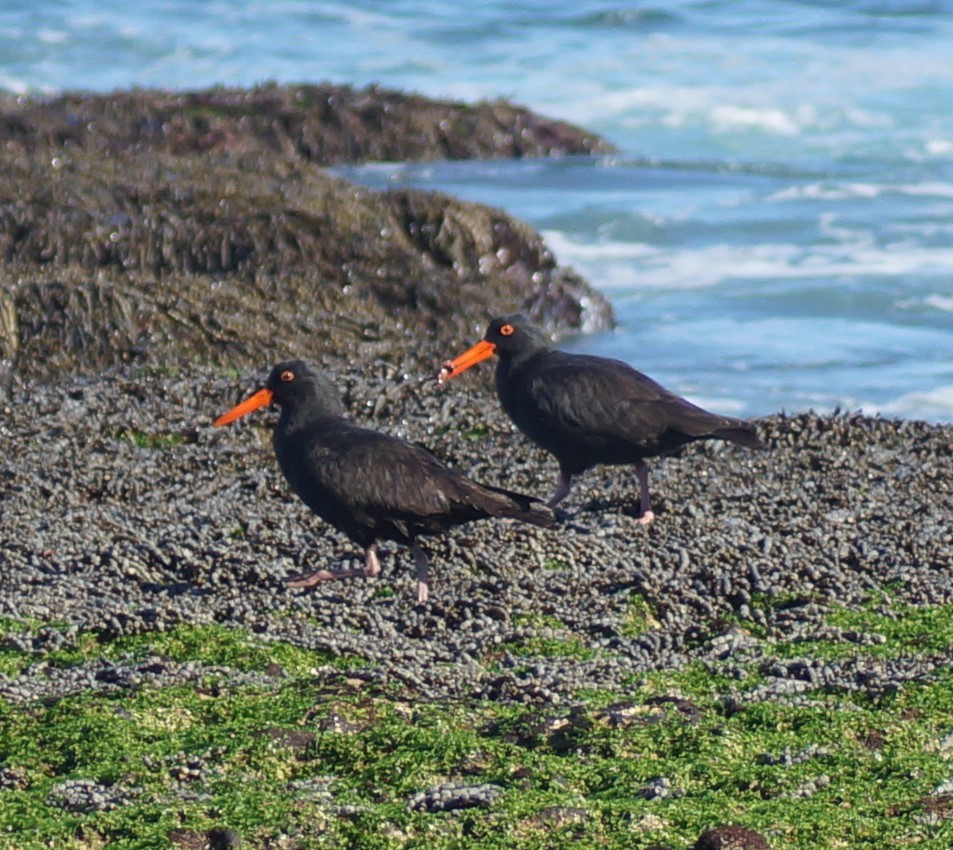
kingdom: Animalia
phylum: Chordata
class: Aves
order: Charadriiformes
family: Haematopodidae
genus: Haematopus
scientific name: Haematopus fuliginosus
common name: Sooty oystercatcher
